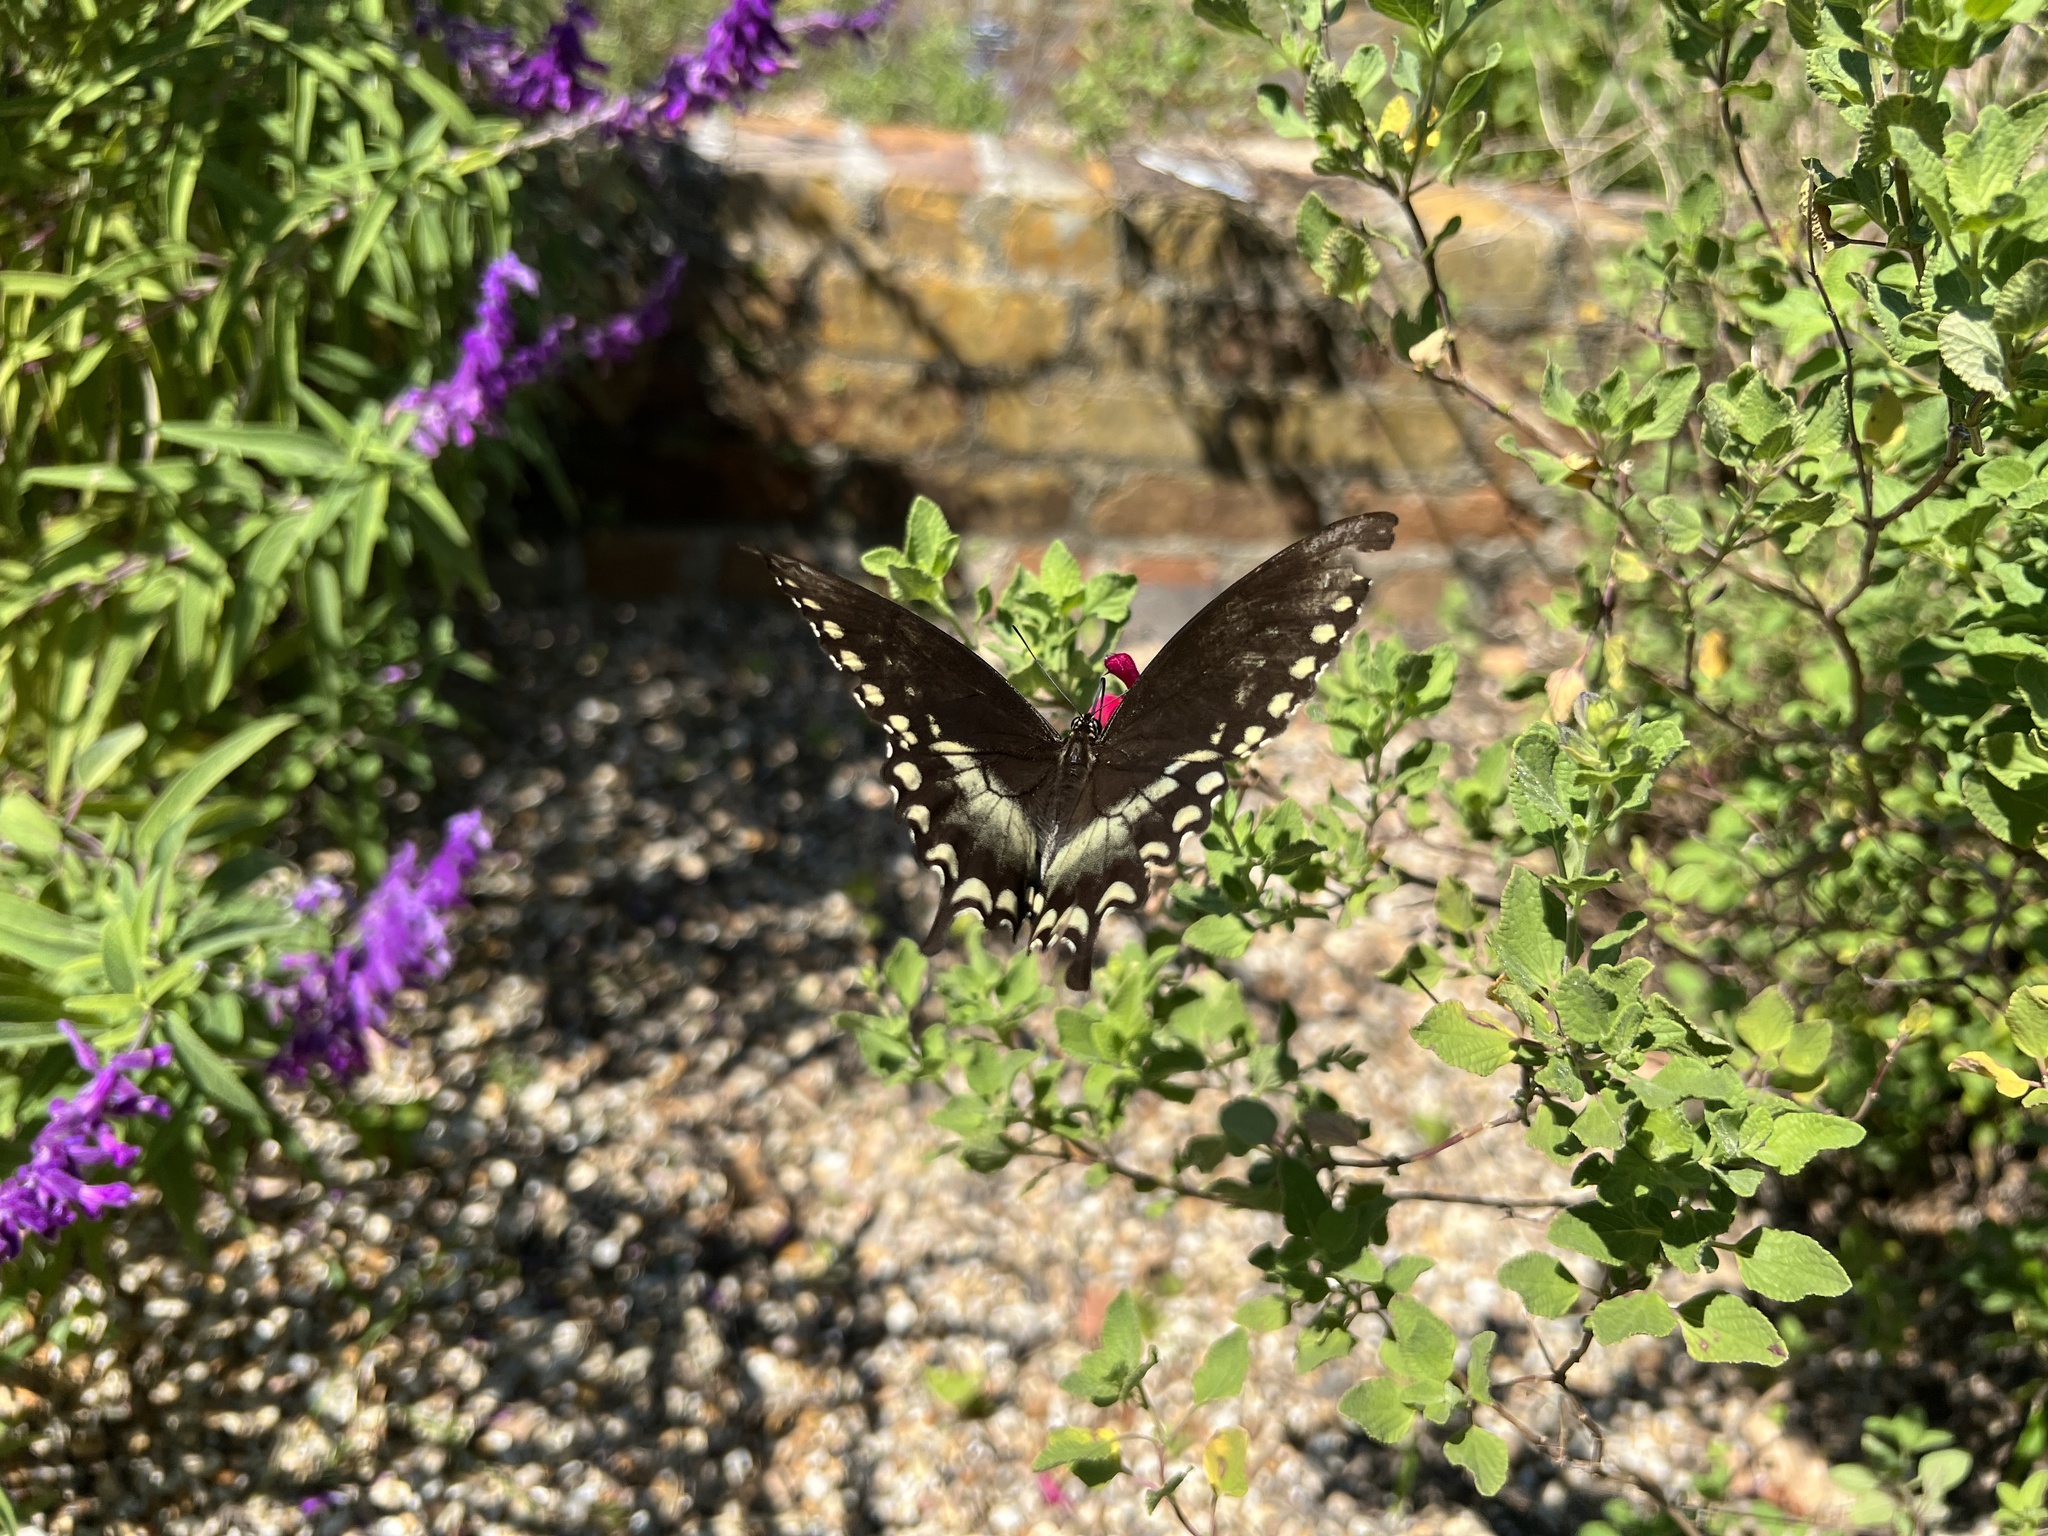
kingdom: Animalia
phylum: Arthropoda
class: Insecta
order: Lepidoptera
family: Papilionidae
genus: Papilio
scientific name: Papilio troilus
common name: Spicebush swallowtail
